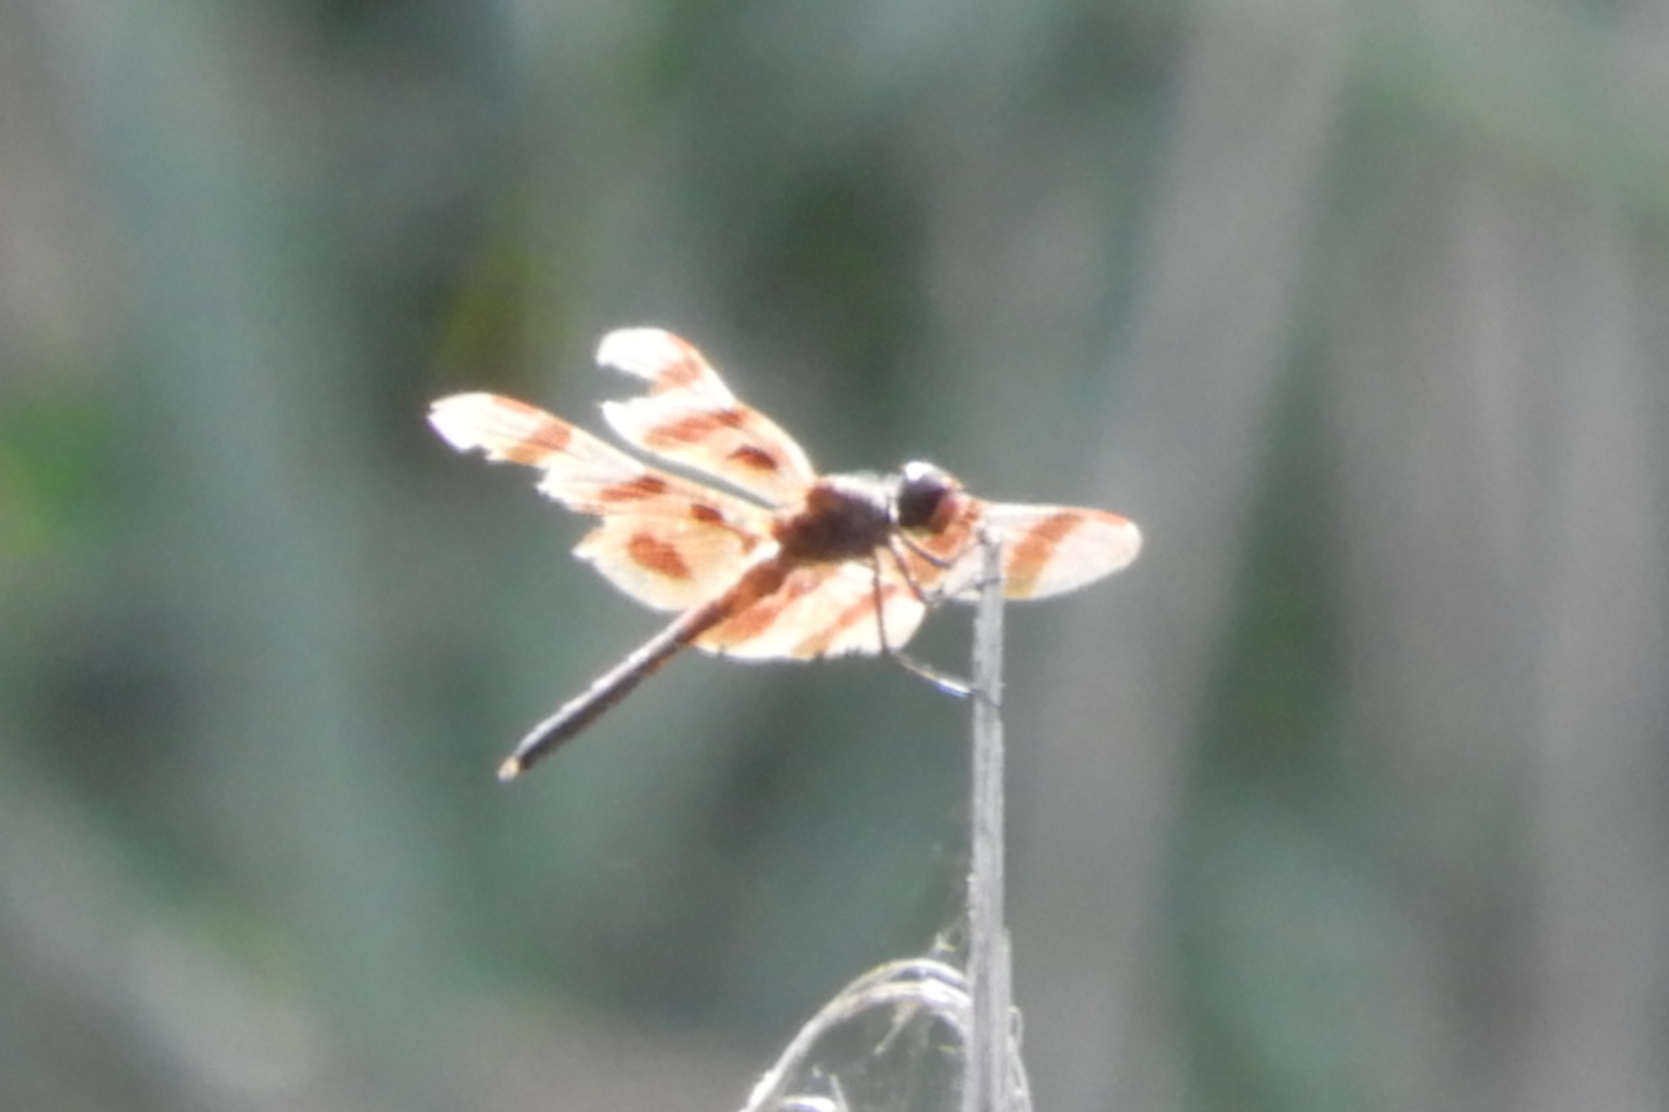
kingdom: Animalia
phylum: Arthropoda
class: Insecta
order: Odonata
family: Libellulidae
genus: Celithemis
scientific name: Celithemis eponina
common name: Halloween pennant
